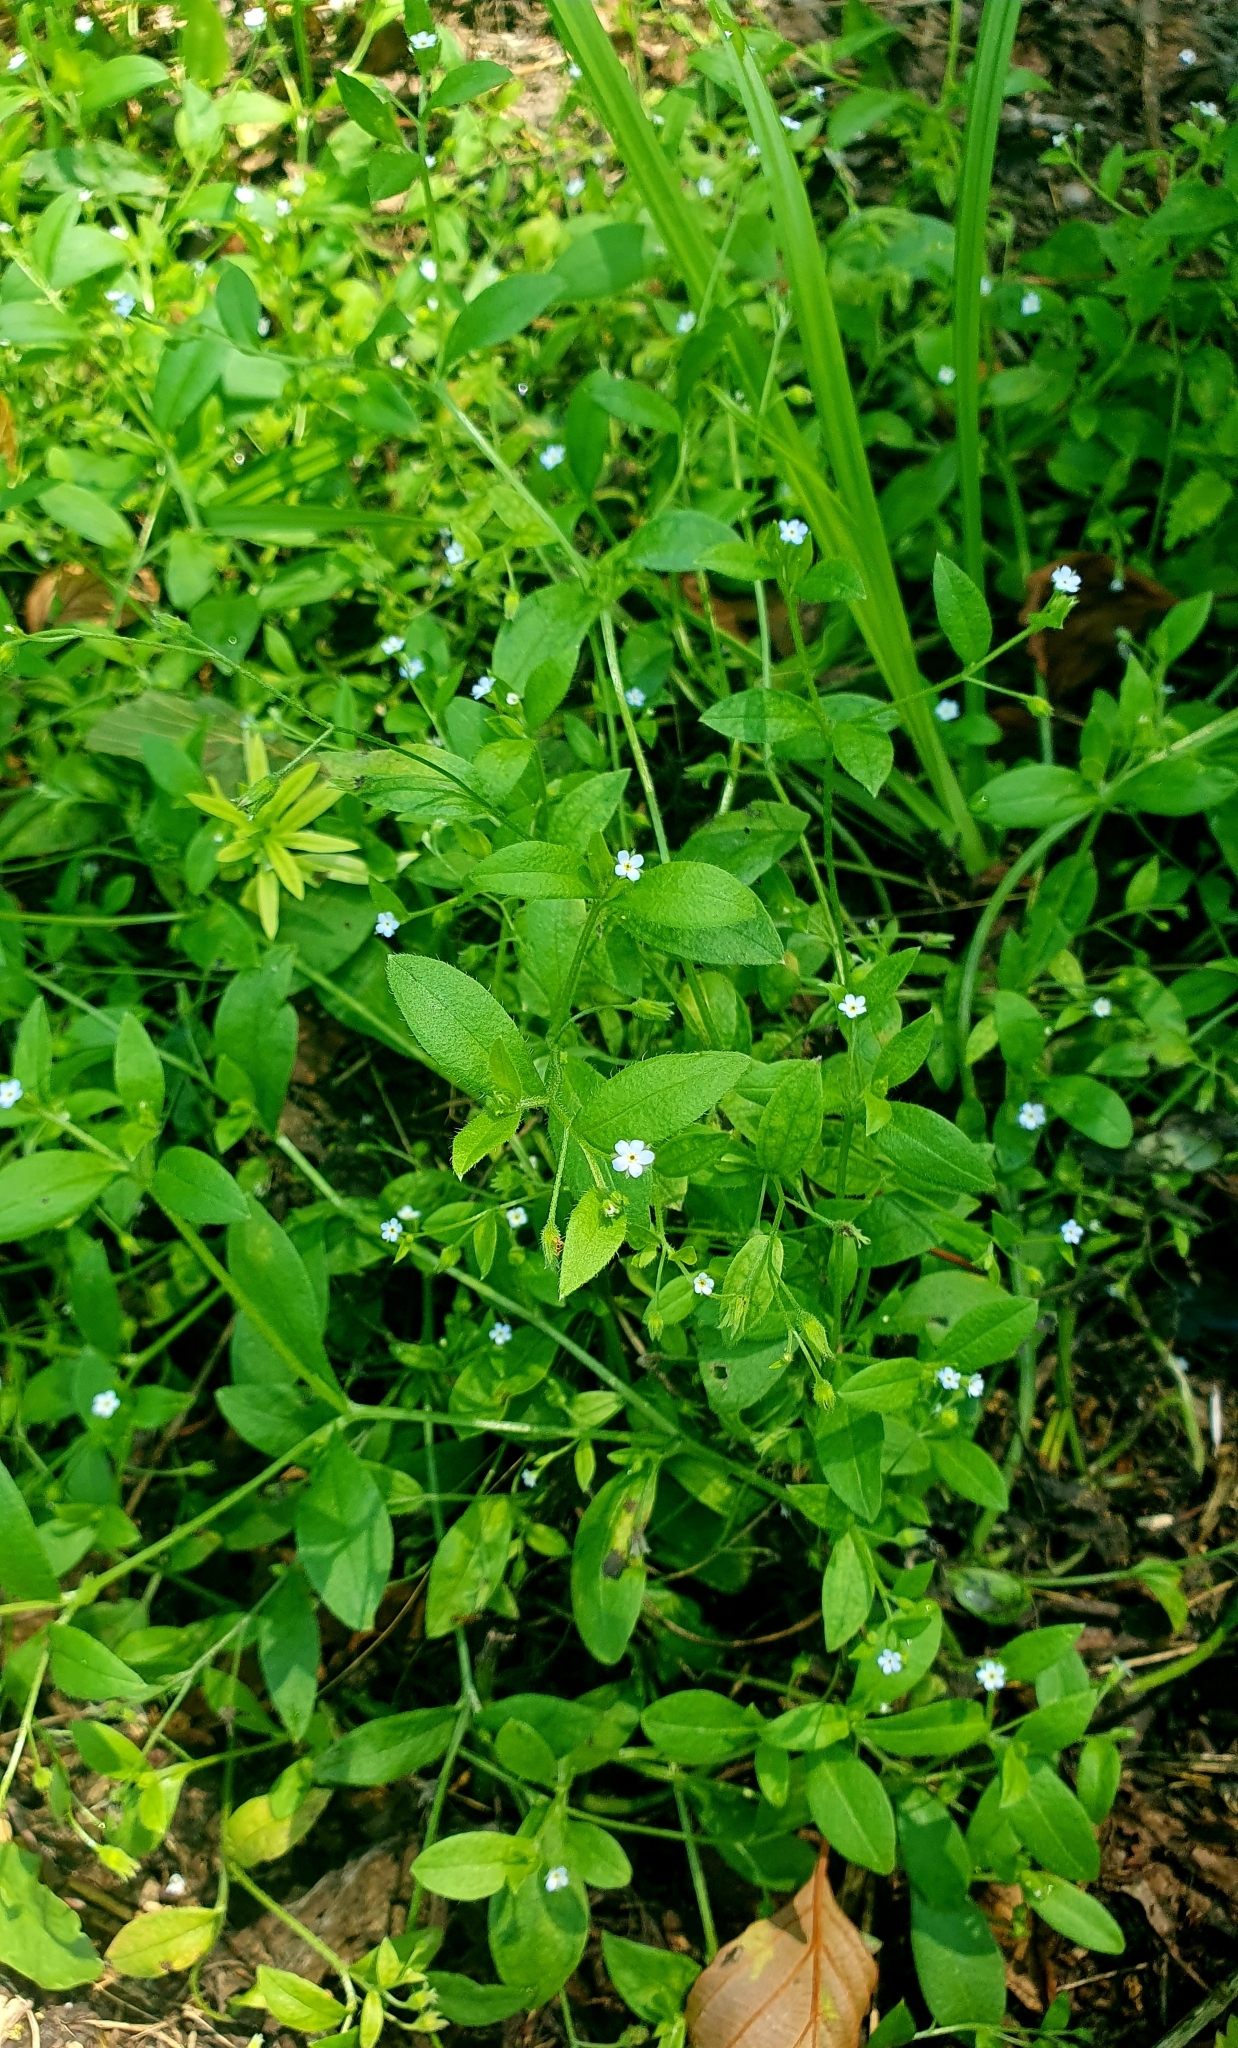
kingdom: Plantae
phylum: Tracheophyta
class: Magnoliopsida
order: Boraginales
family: Boraginaceae
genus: Myosotis
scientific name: Myosotis sparsiflora
